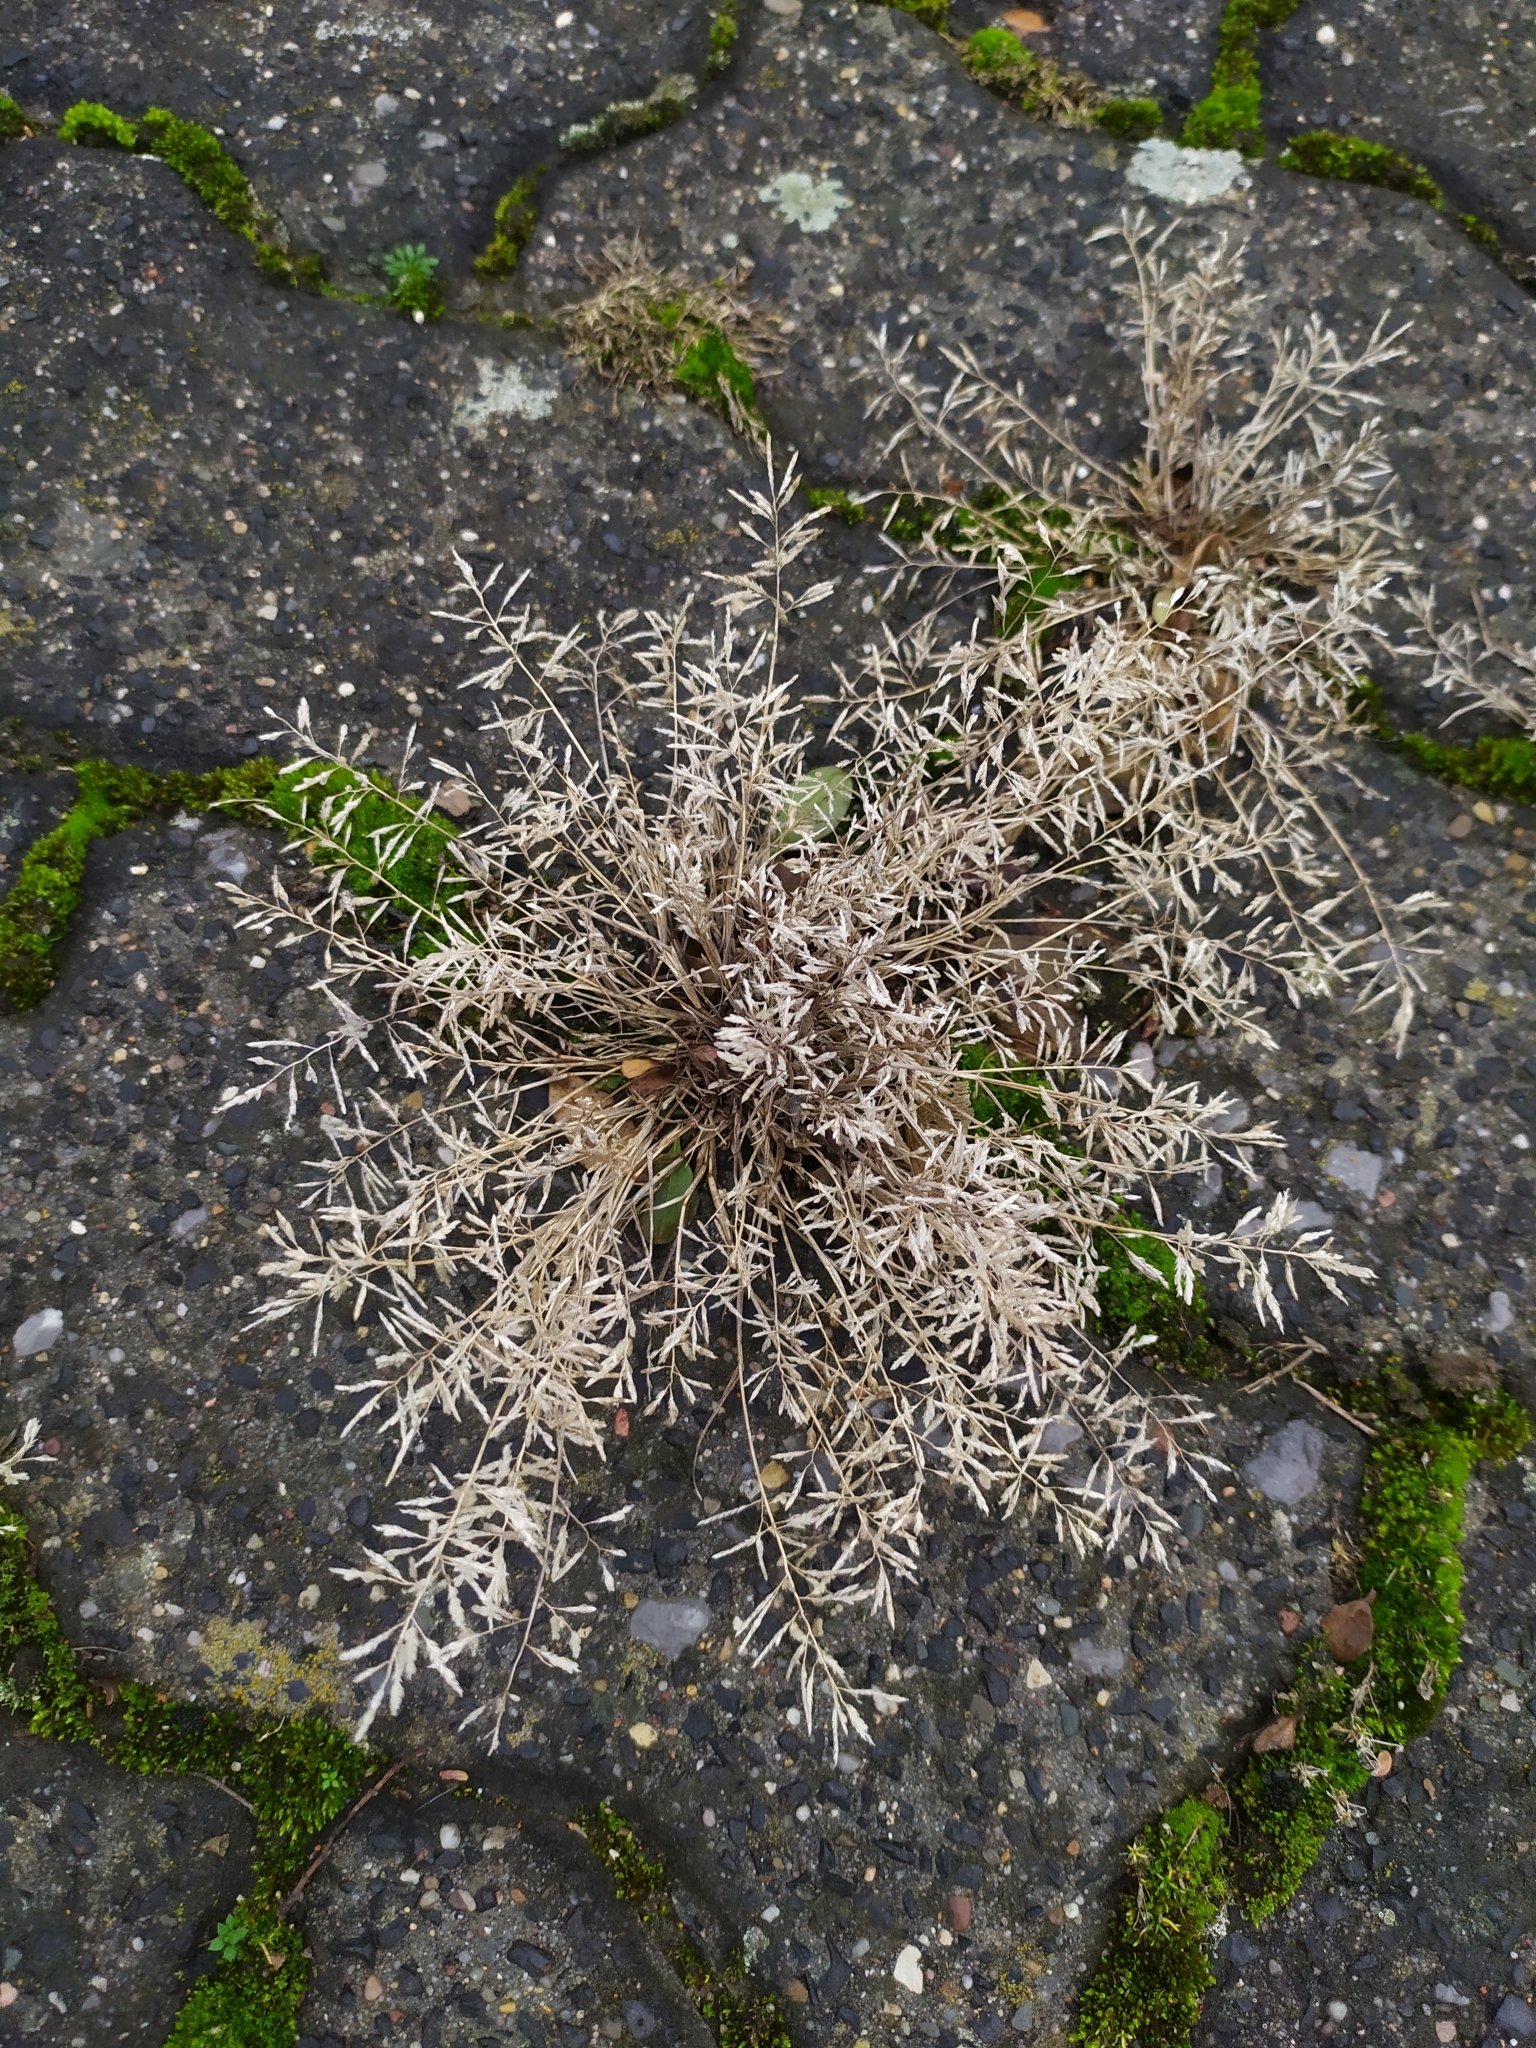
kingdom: Plantae
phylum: Tracheophyta
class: Liliopsida
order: Poales
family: Poaceae
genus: Eragrostis
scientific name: Eragrostis minor
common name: Small love-grass
